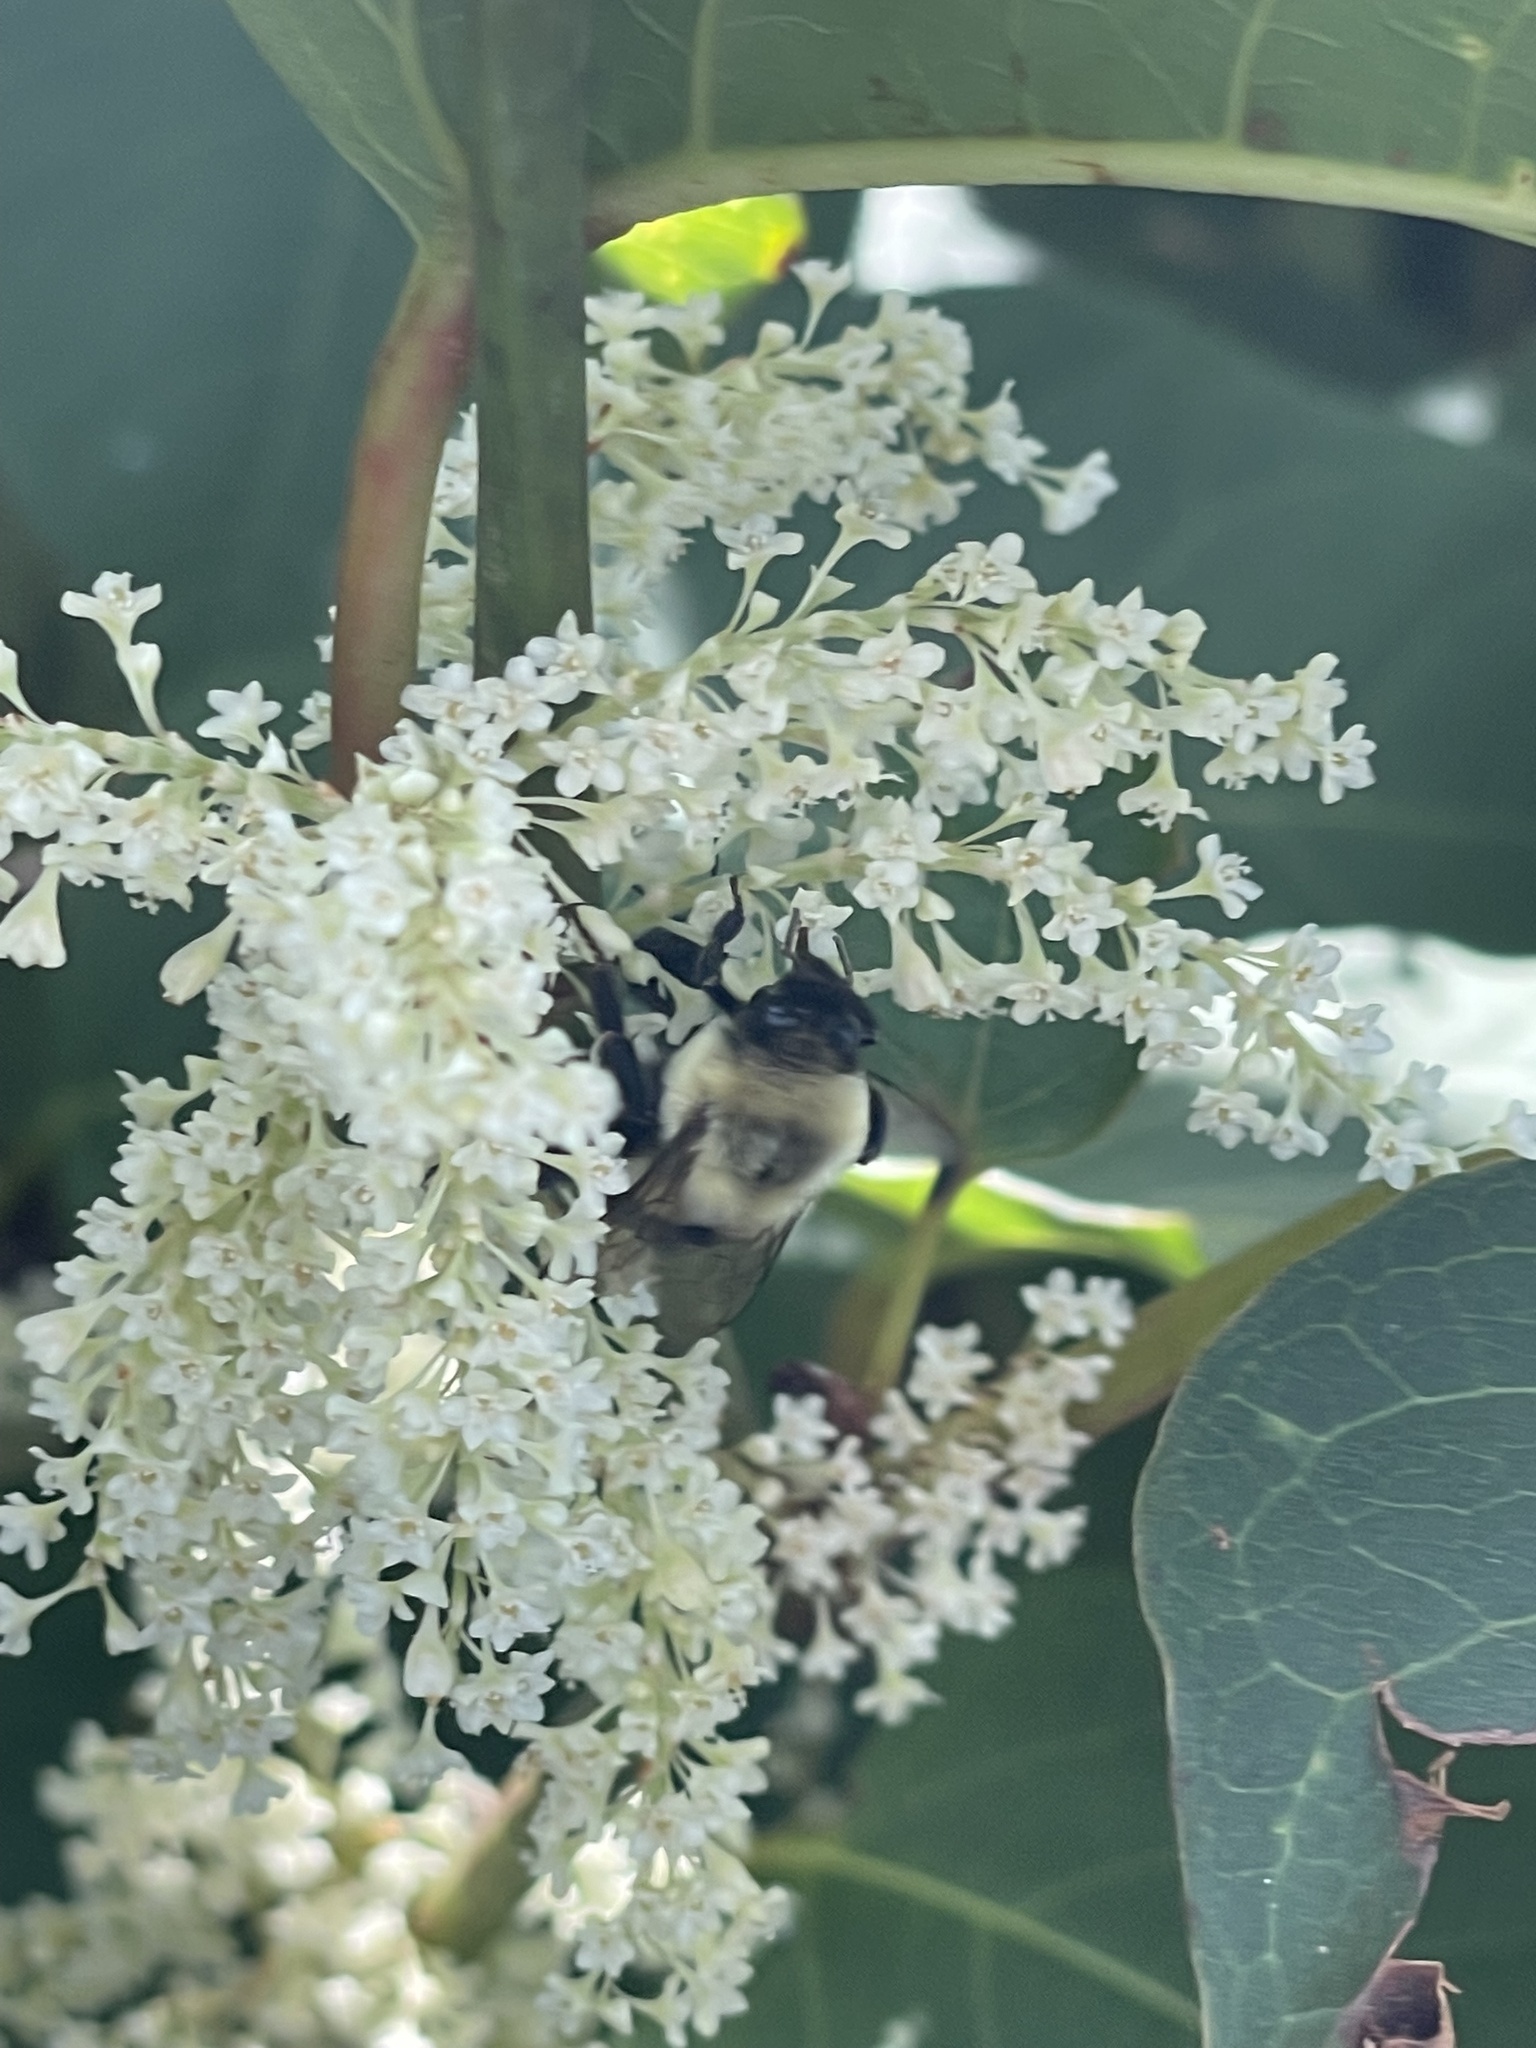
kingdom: Animalia
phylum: Arthropoda
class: Insecta
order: Hymenoptera
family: Apidae
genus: Bombus
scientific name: Bombus impatiens
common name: Common eastern bumble bee
